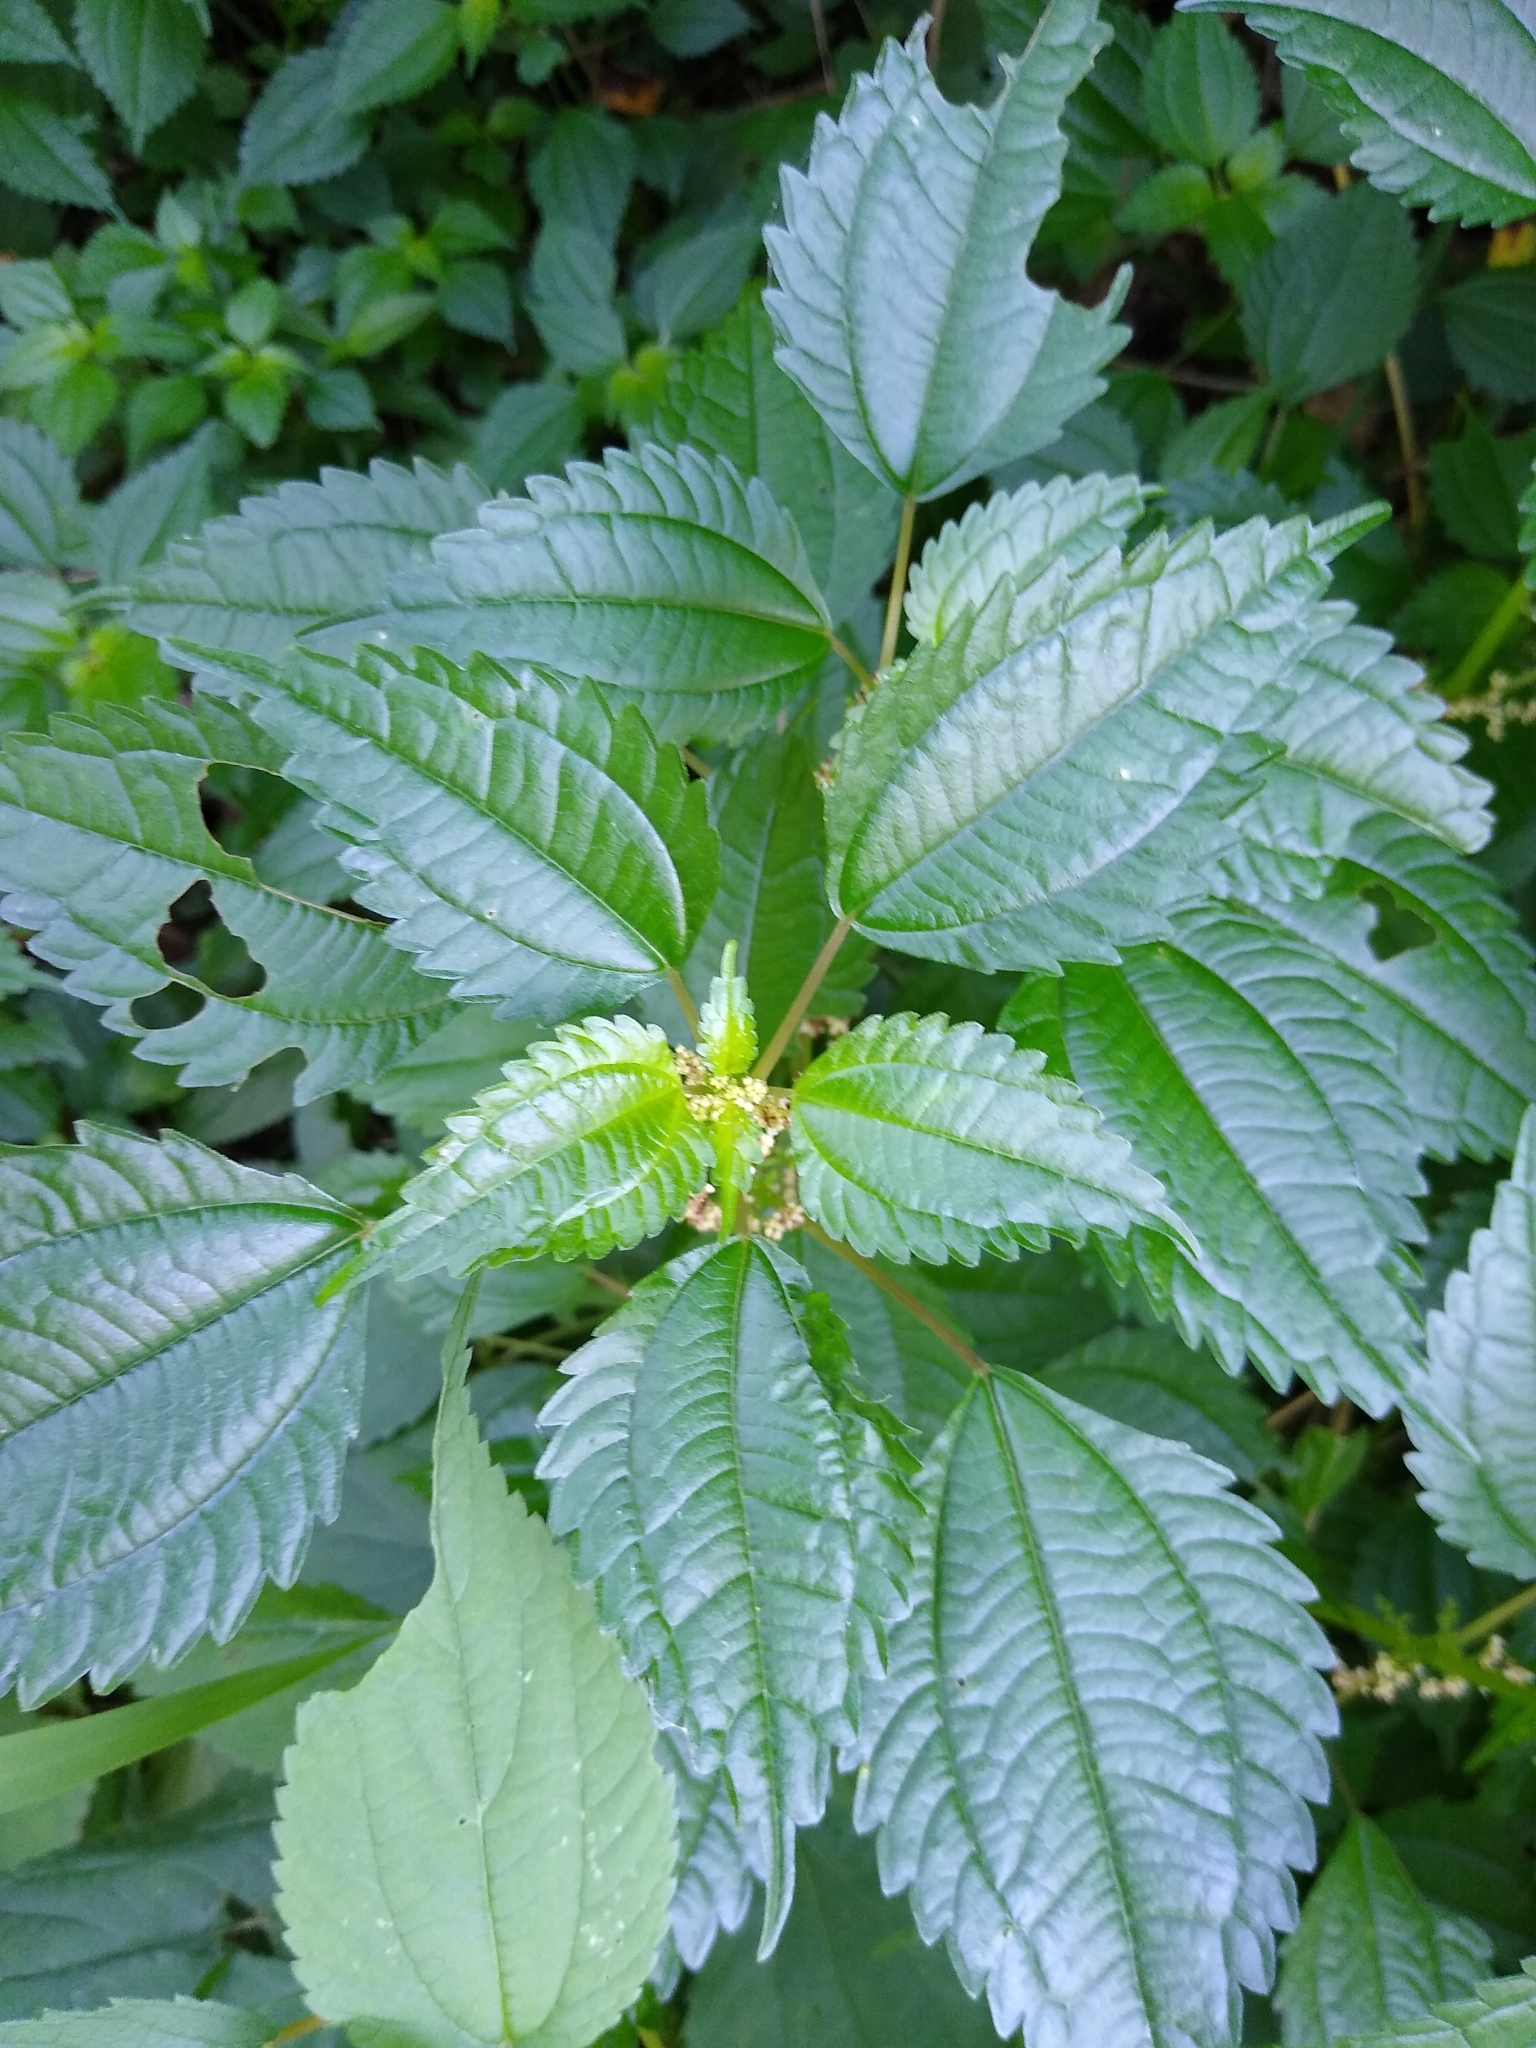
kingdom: Plantae
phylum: Tracheophyta
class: Magnoliopsida
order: Rosales
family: Urticaceae
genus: Pilea
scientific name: Pilea pumila
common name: Clearweed
